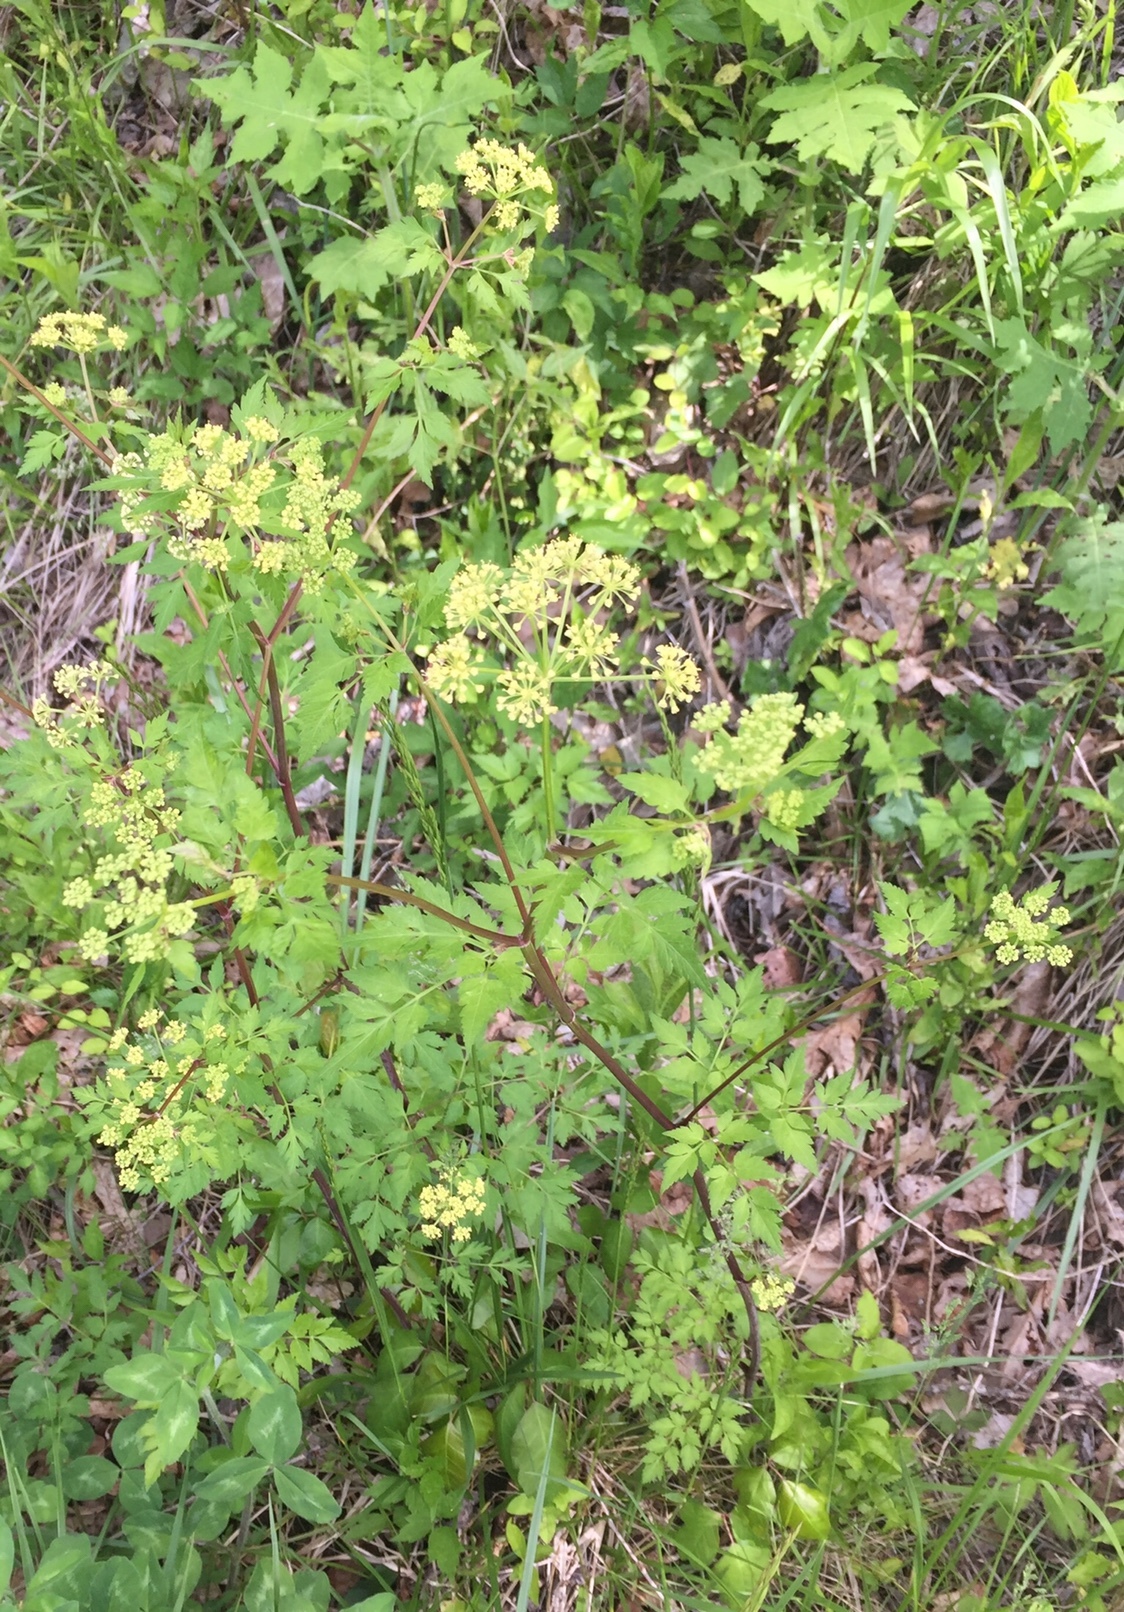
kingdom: Plantae
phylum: Tracheophyta
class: Magnoliopsida
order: Apiales
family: Apiaceae
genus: Thaspium
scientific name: Thaspium barbinode
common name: Bearded meadow-parsnip
